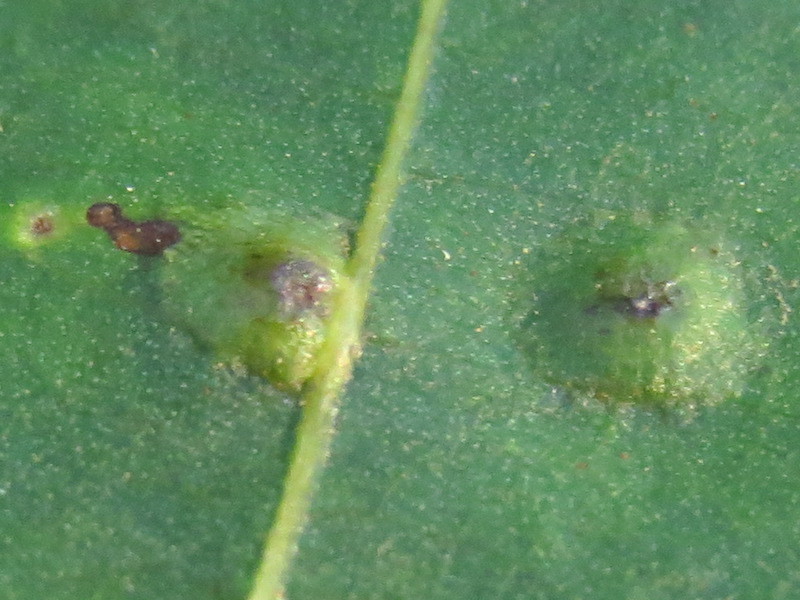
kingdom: Animalia
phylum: Arthropoda
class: Insecta
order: Diptera
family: Cecidomyiidae
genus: Caryomyia
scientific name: Caryomyia tubicola
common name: Hickory bullet gall midge
